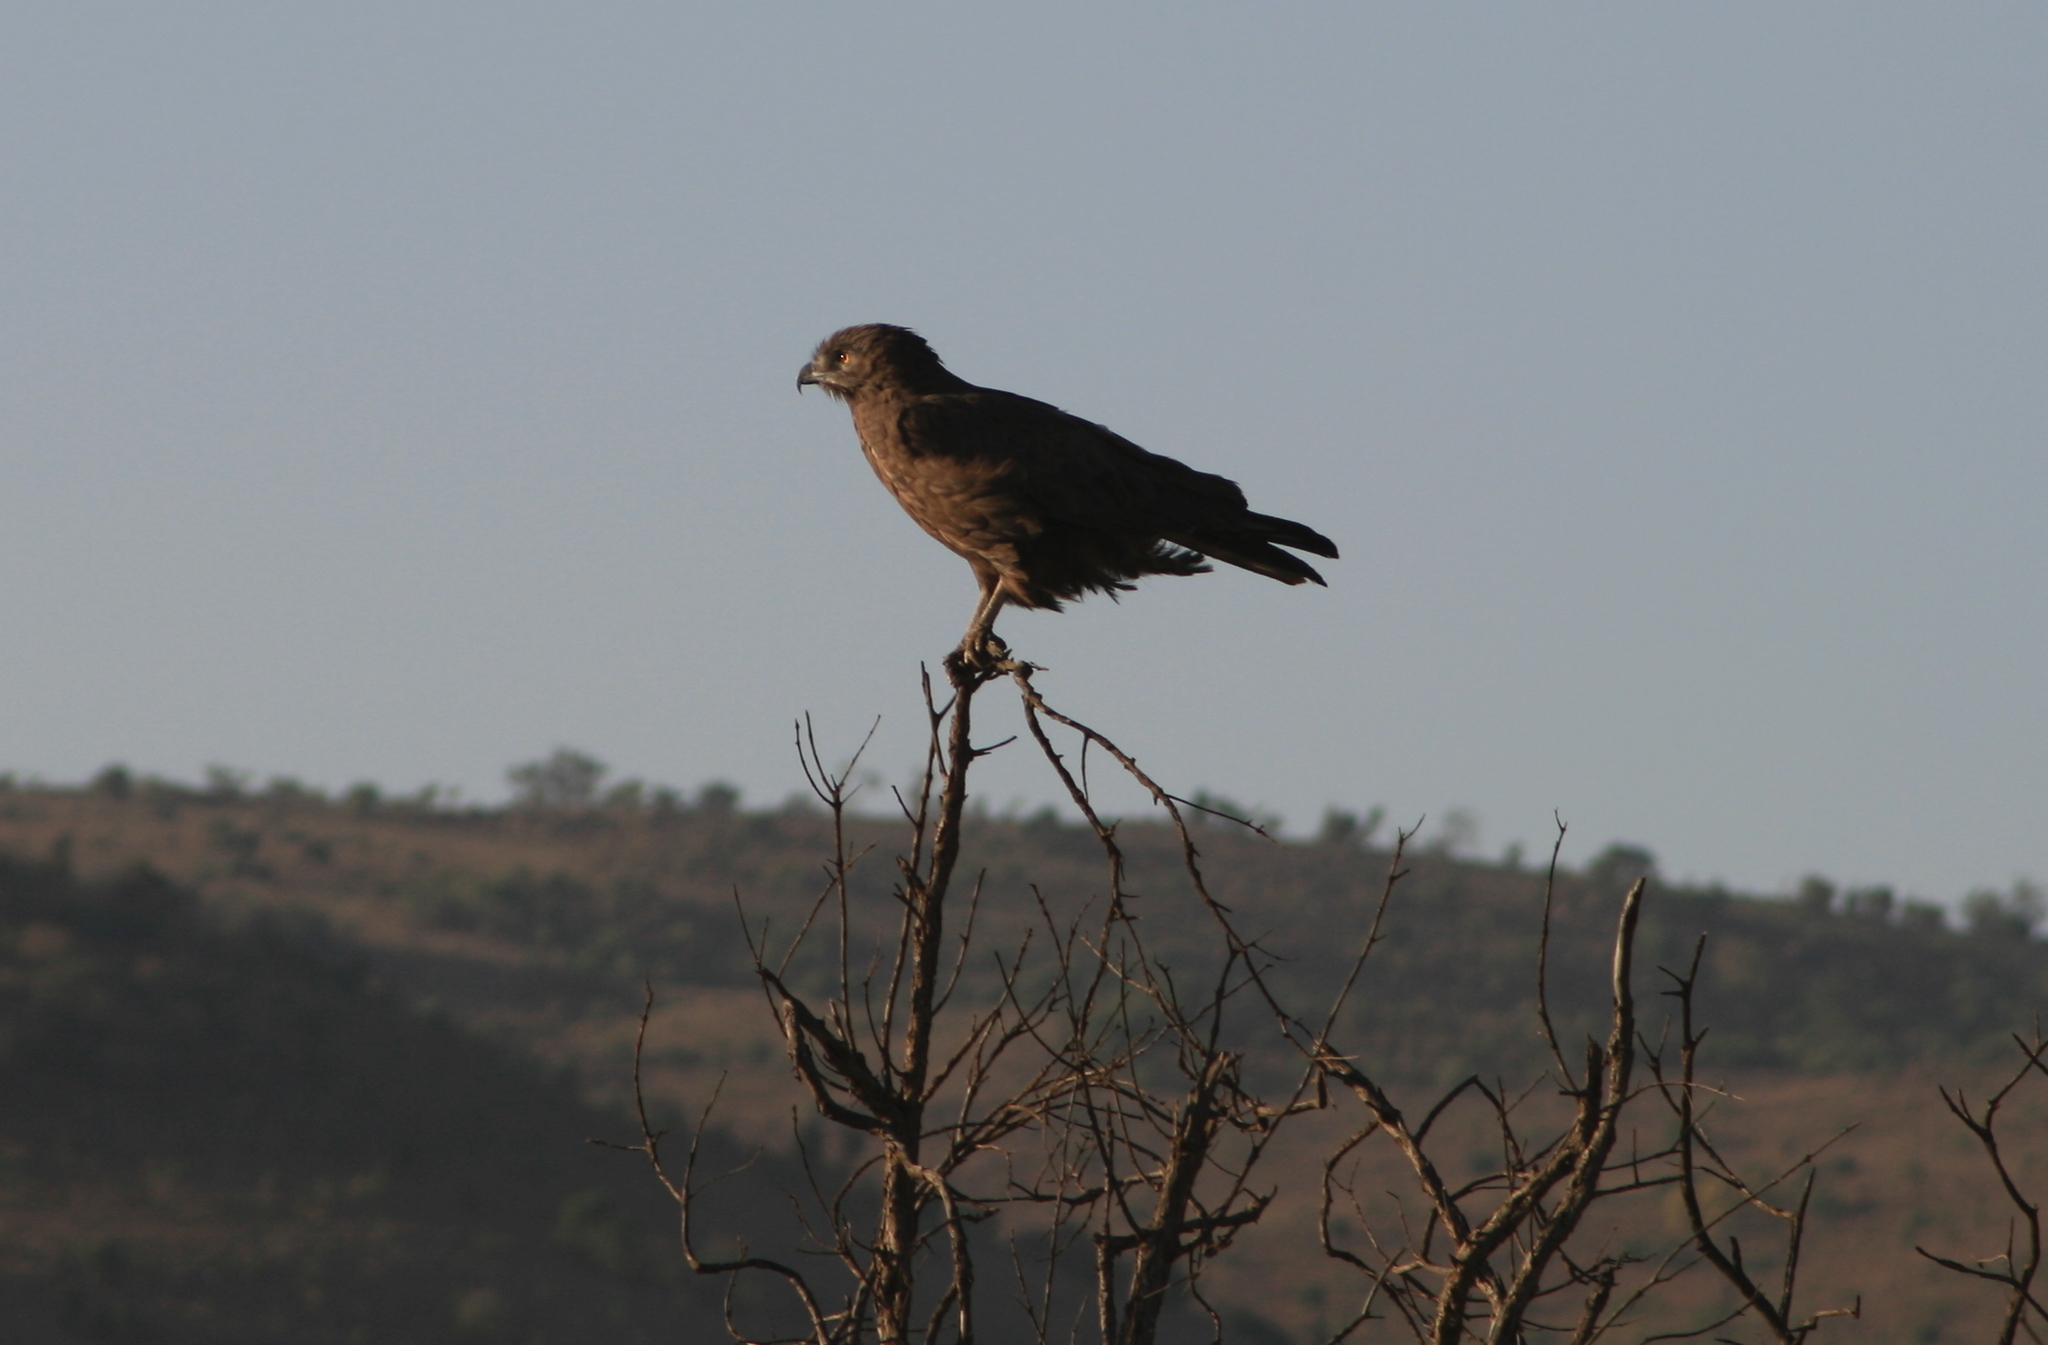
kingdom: Animalia
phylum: Chordata
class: Aves
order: Accipitriformes
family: Accipitridae
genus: Circaetus
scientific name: Circaetus cinereus
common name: Brown snake eagle
